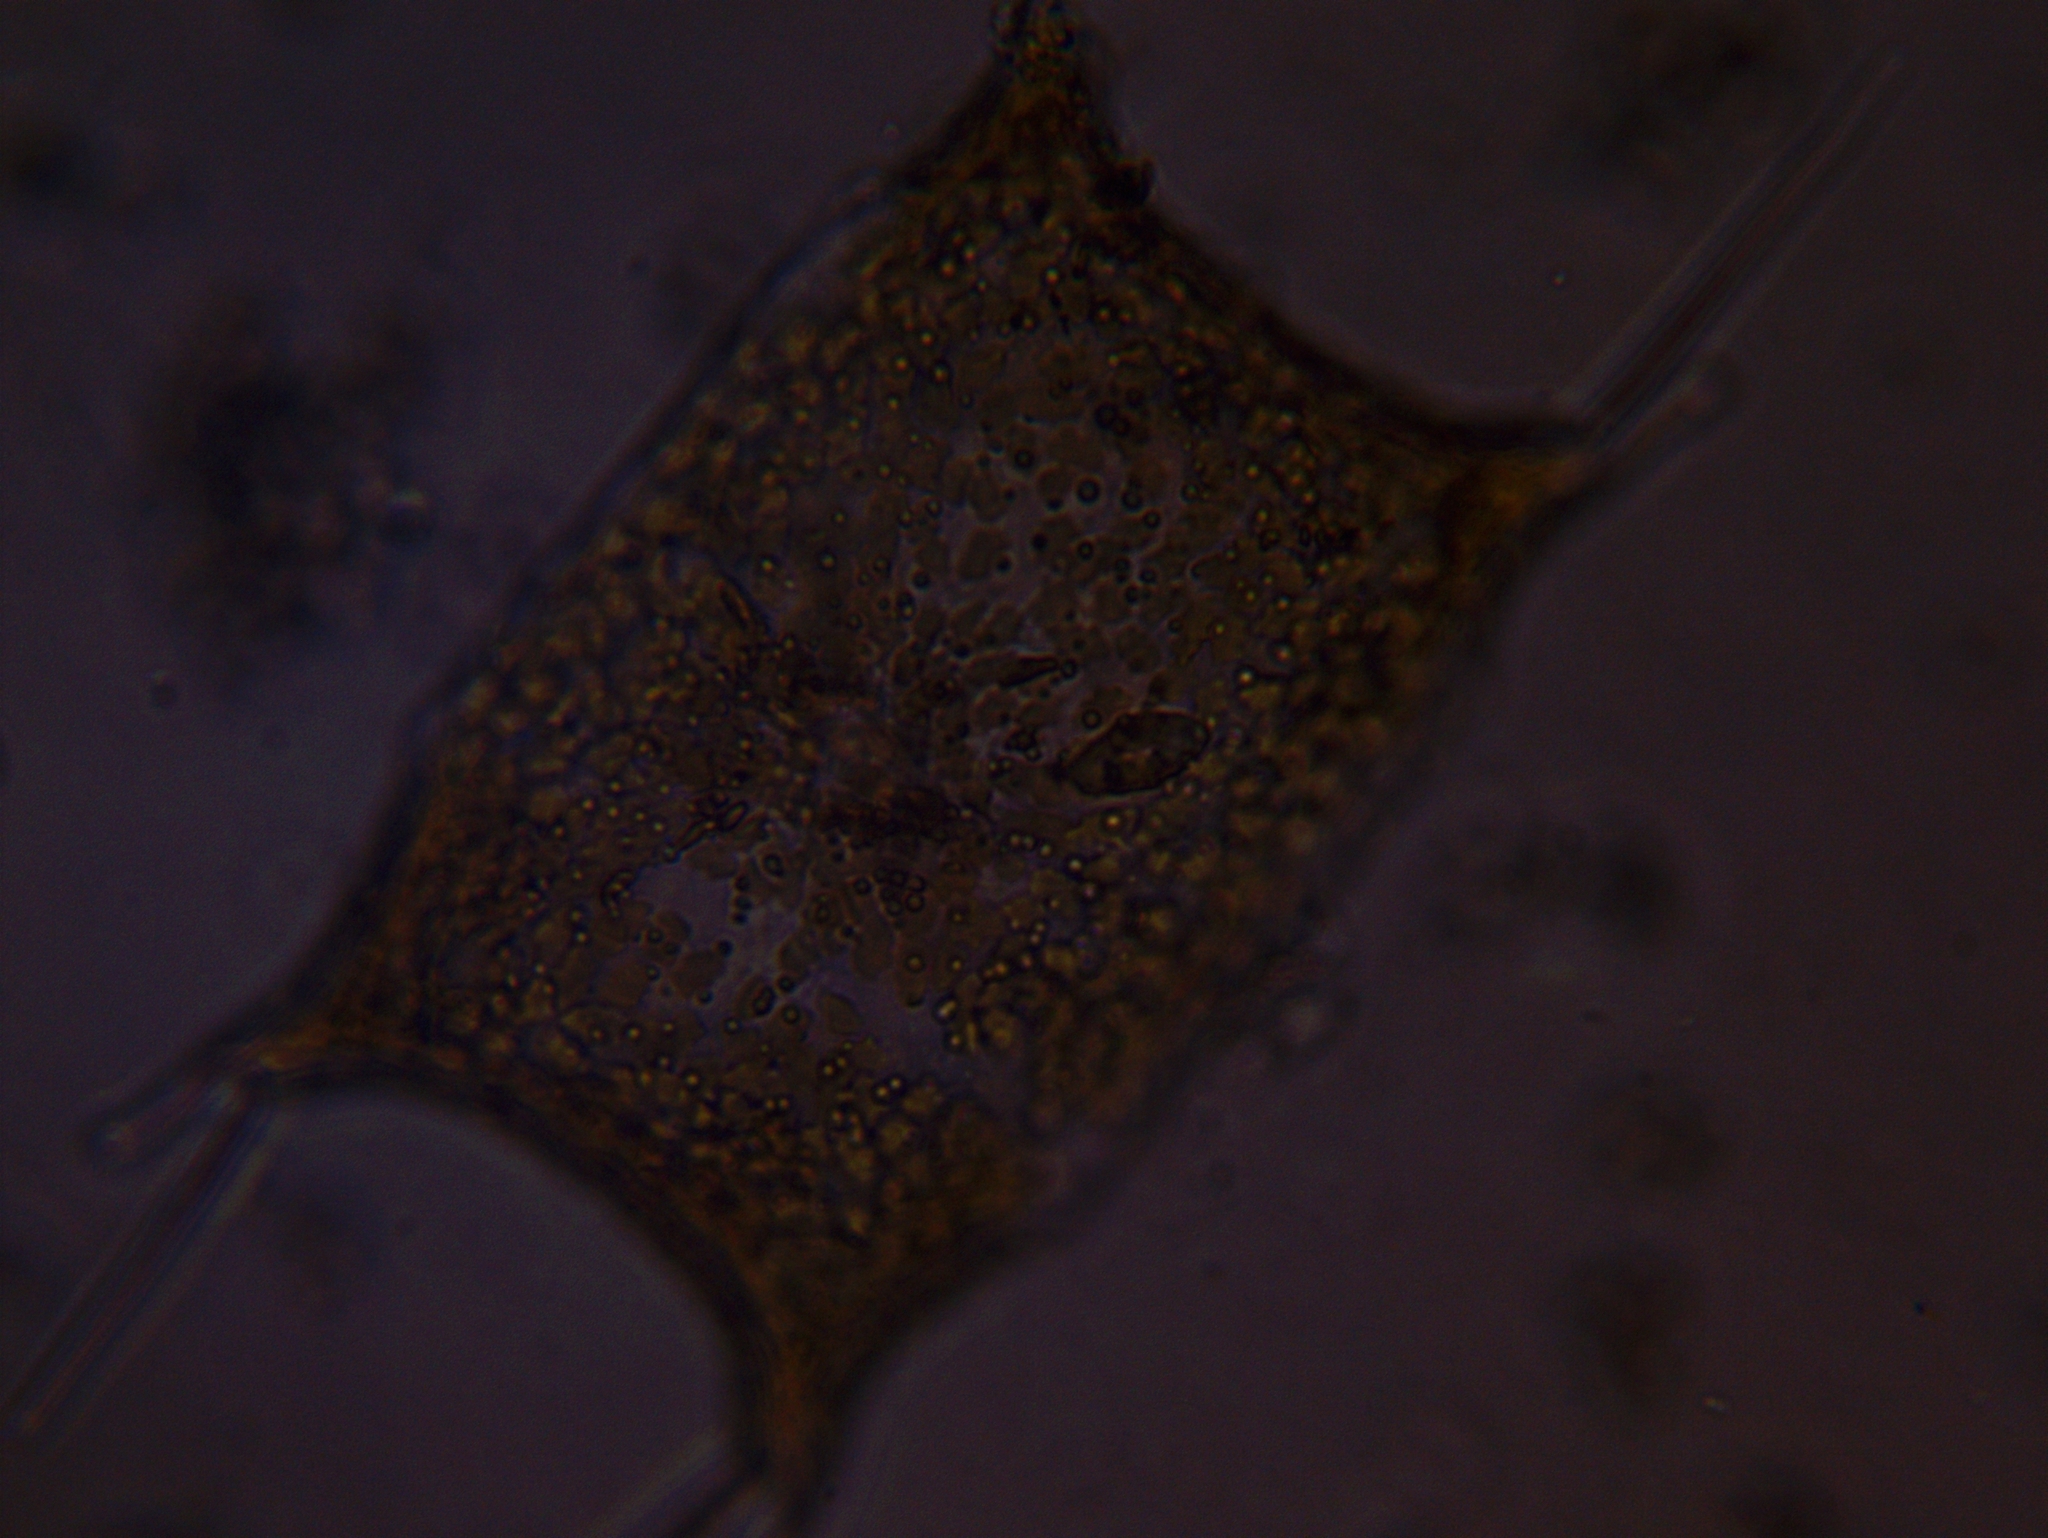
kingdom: Chromista
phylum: Ochrophyta
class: Bacillariophyceae
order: Biddulphiales
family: Biddulphiaceae
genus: Biddulphia
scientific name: Biddulphia sinensis
